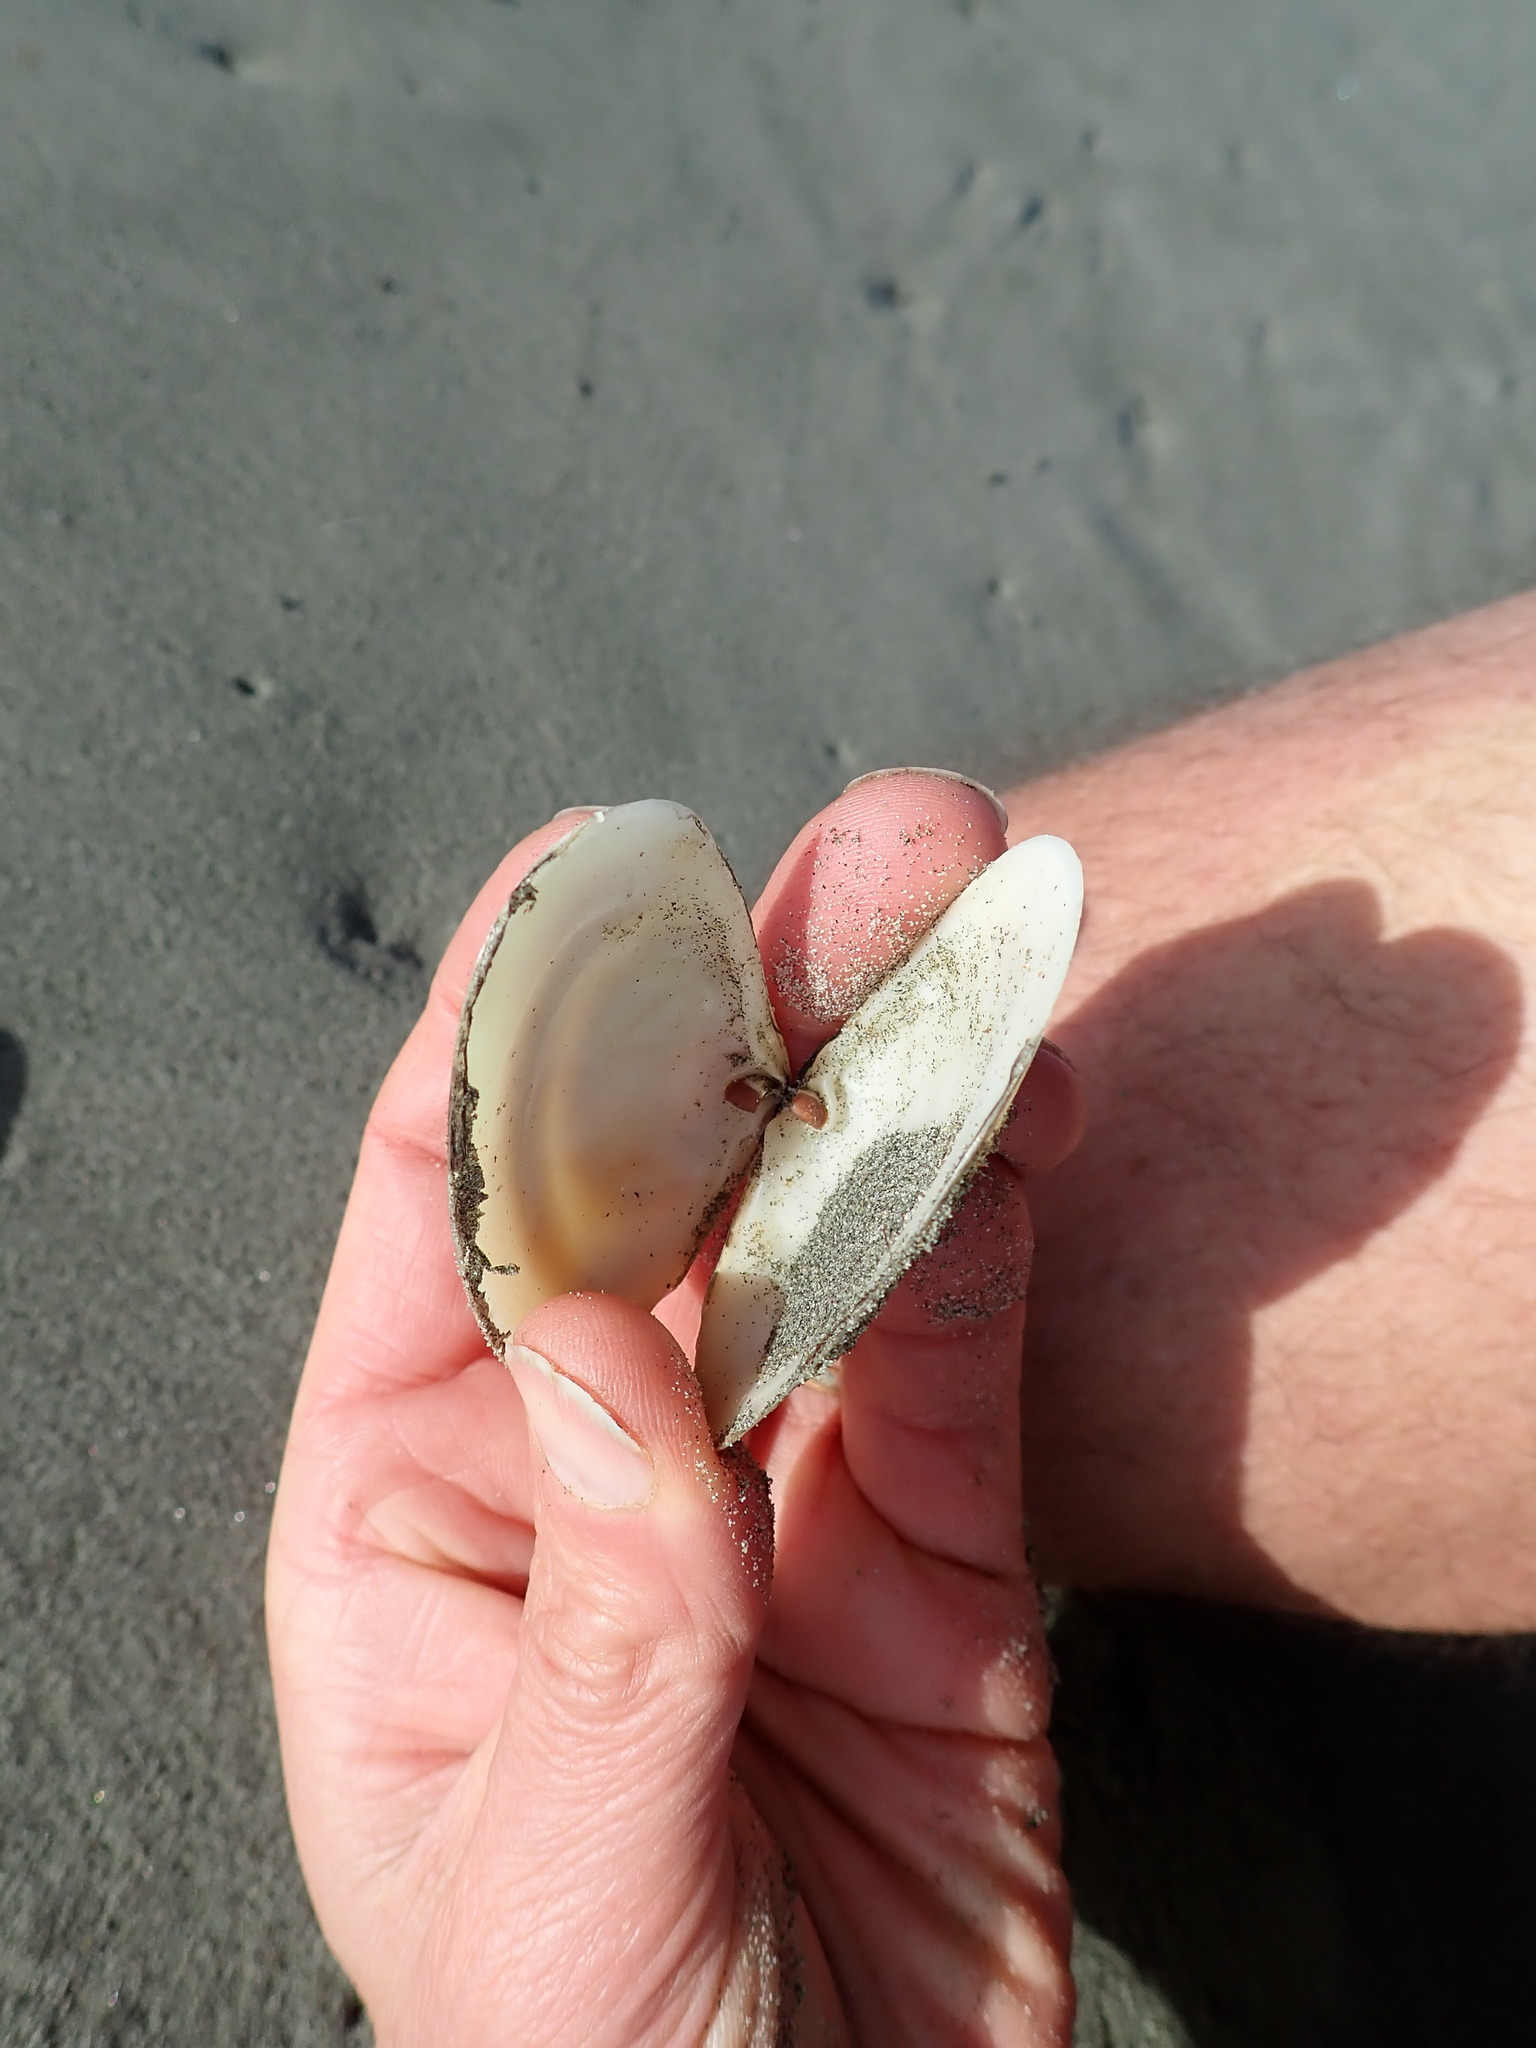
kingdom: Animalia
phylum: Mollusca
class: Bivalvia
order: Venerida
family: Mesodesmatidae
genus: Paphies
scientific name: Paphies donacina
